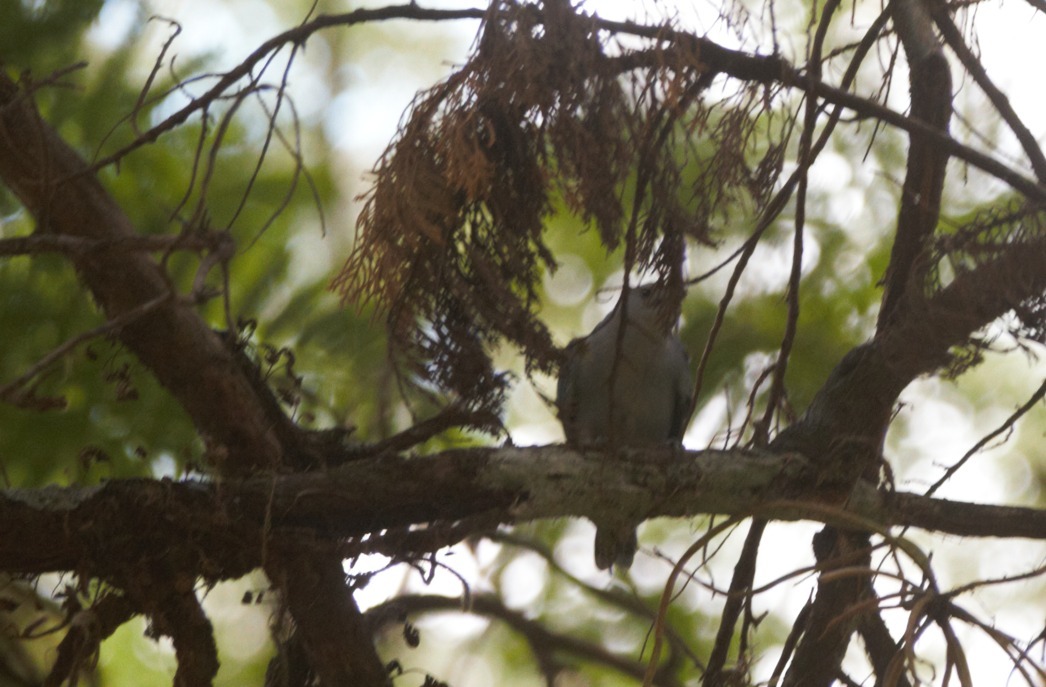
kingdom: Animalia
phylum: Chordata
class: Aves
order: Passeriformes
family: Thraupidae
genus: Thraupis
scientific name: Thraupis sayaca
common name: Sayaca tanager
